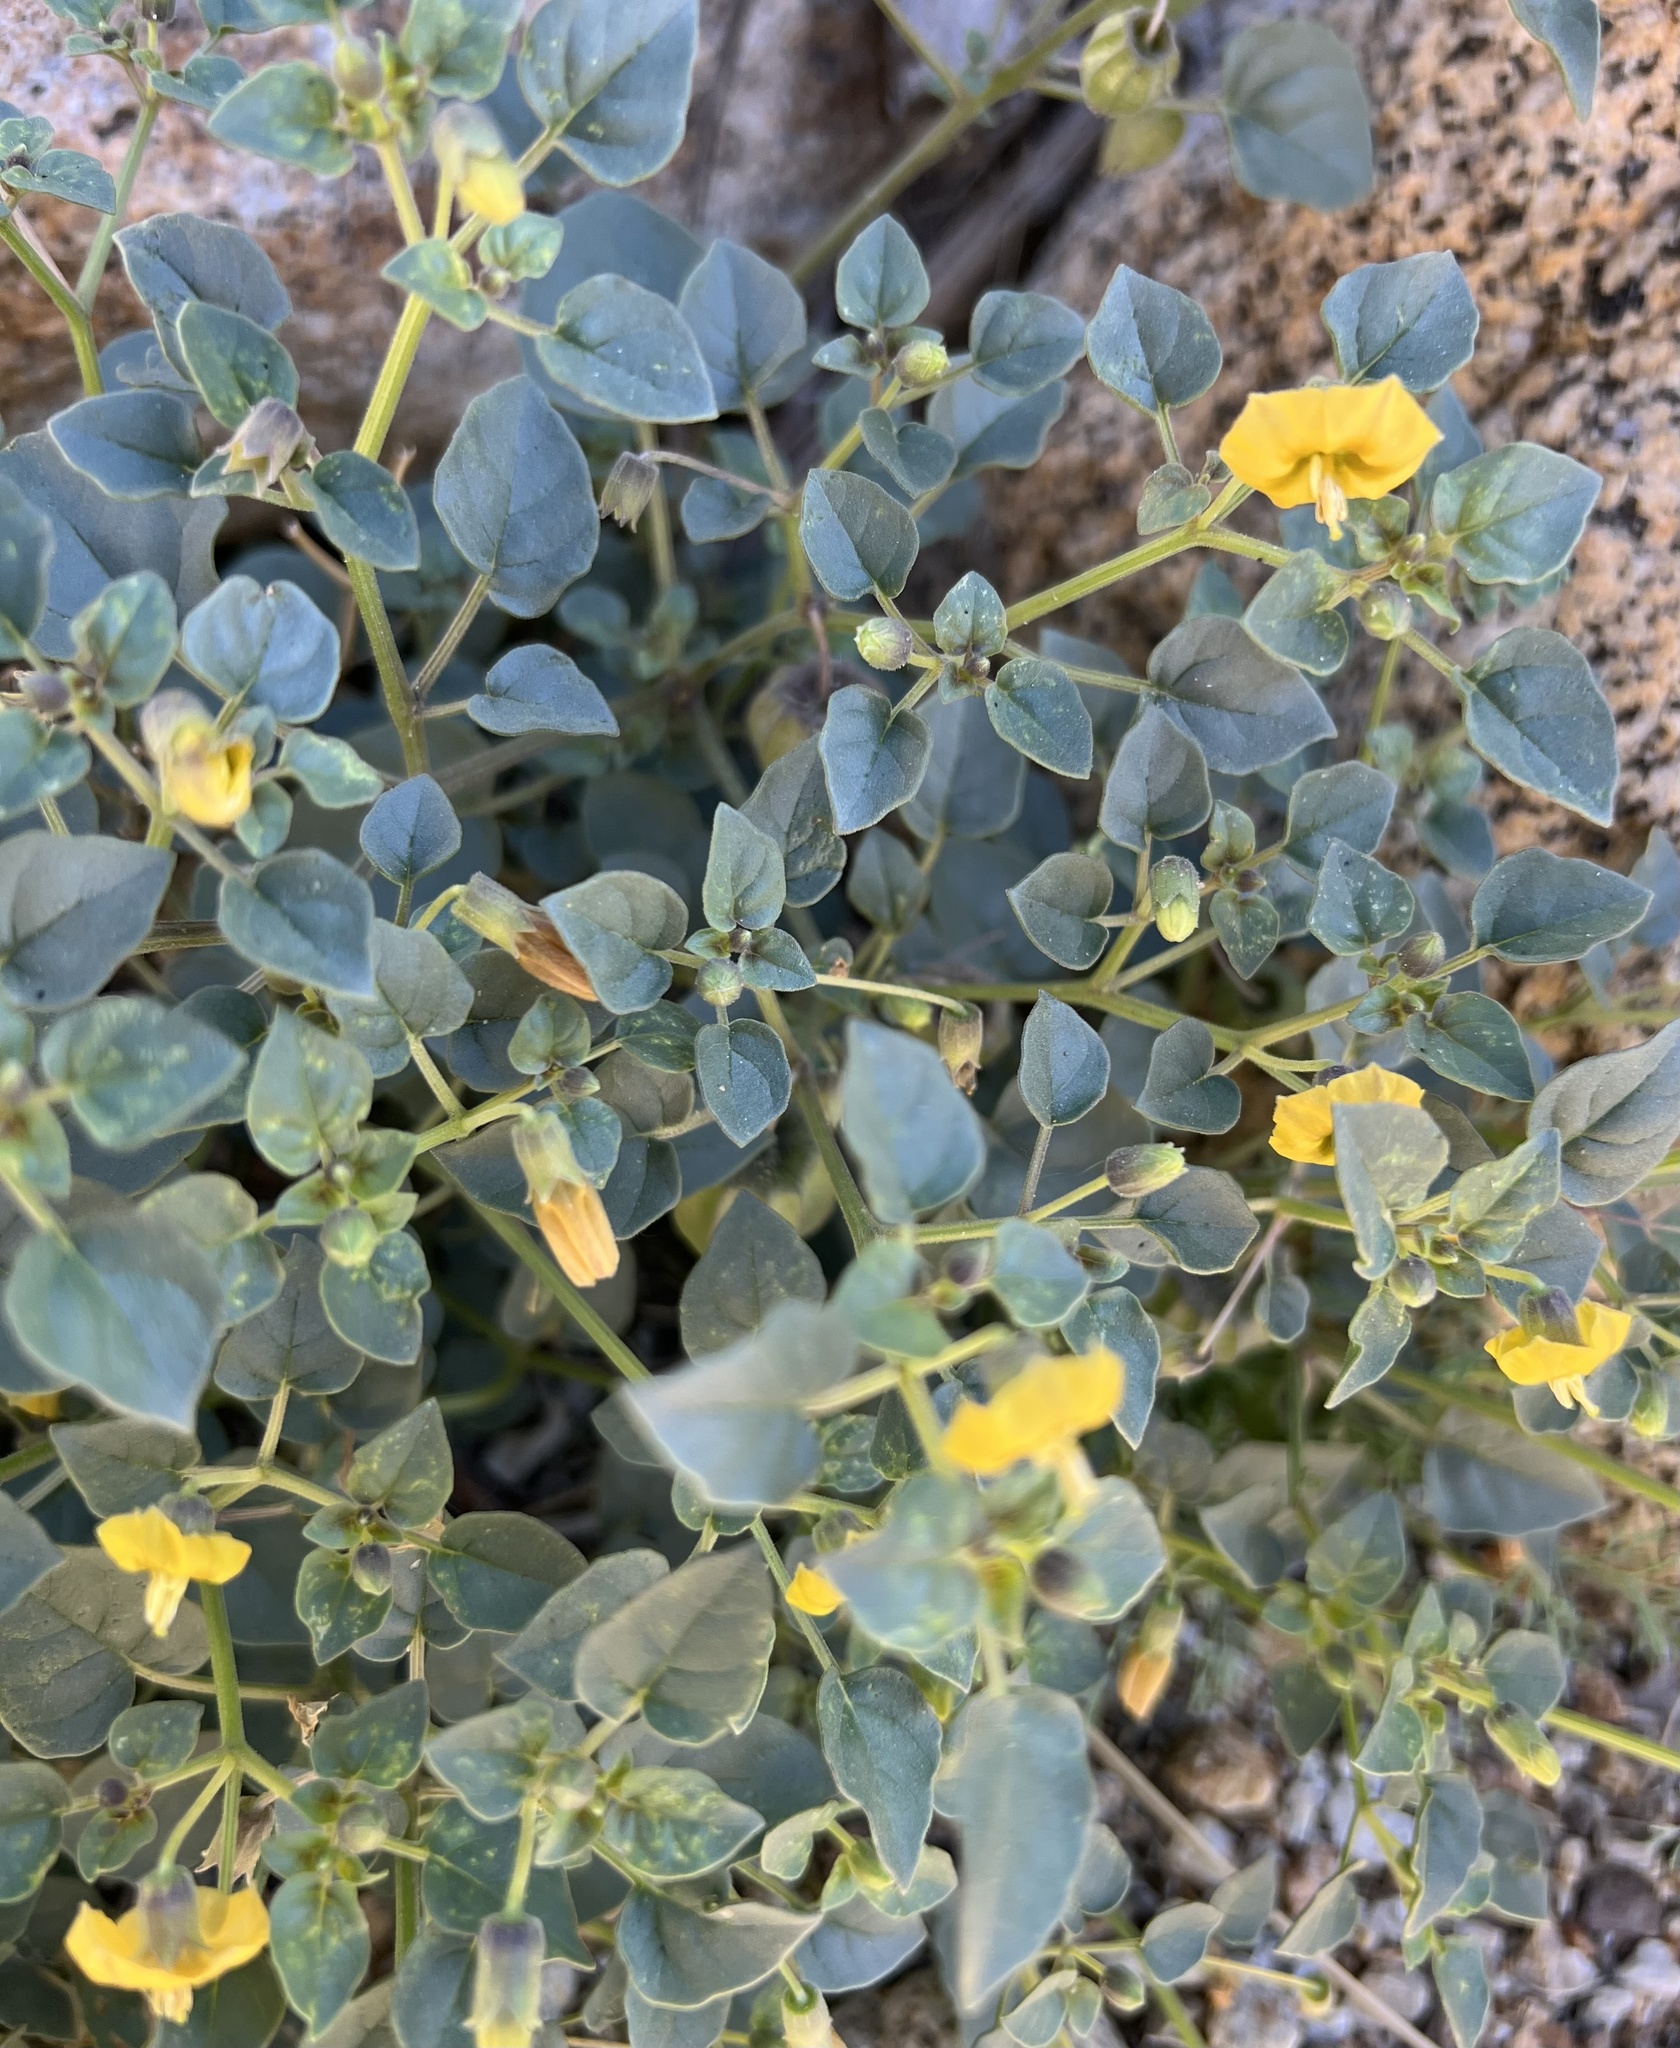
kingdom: Plantae
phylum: Tracheophyta
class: Magnoliopsida
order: Solanales
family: Solanaceae
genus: Physalis
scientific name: Physalis crassifolia
